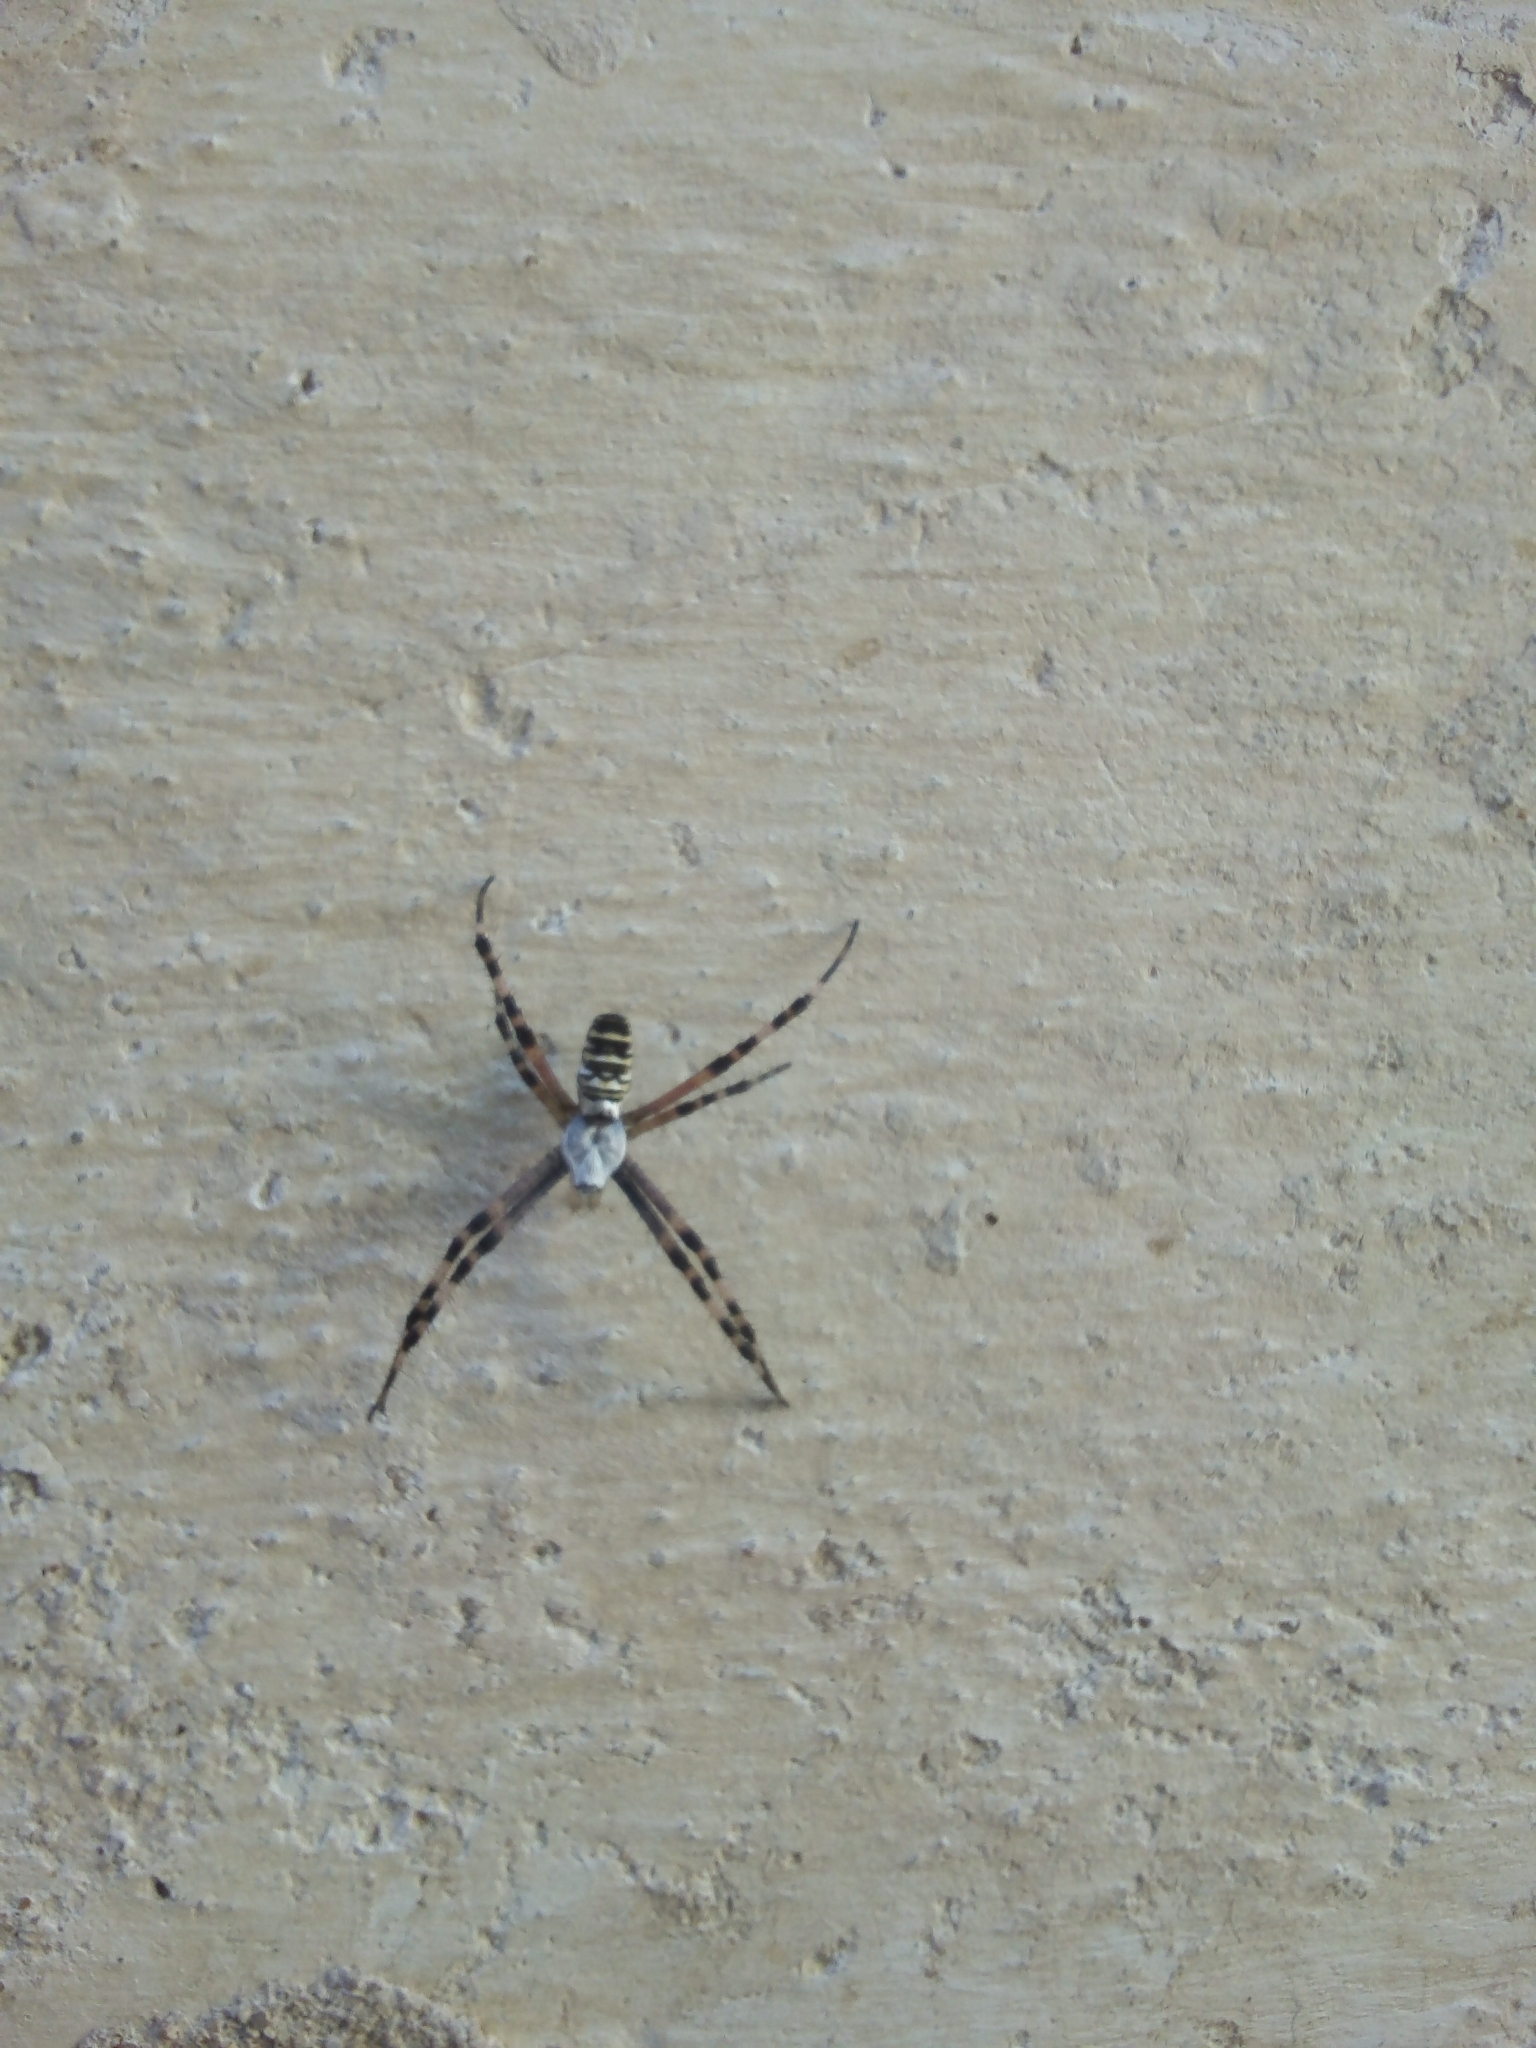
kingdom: Animalia
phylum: Arthropoda
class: Arachnida
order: Araneae
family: Araneidae
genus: Argiope
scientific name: Argiope bruennichi
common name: Wasp spider
